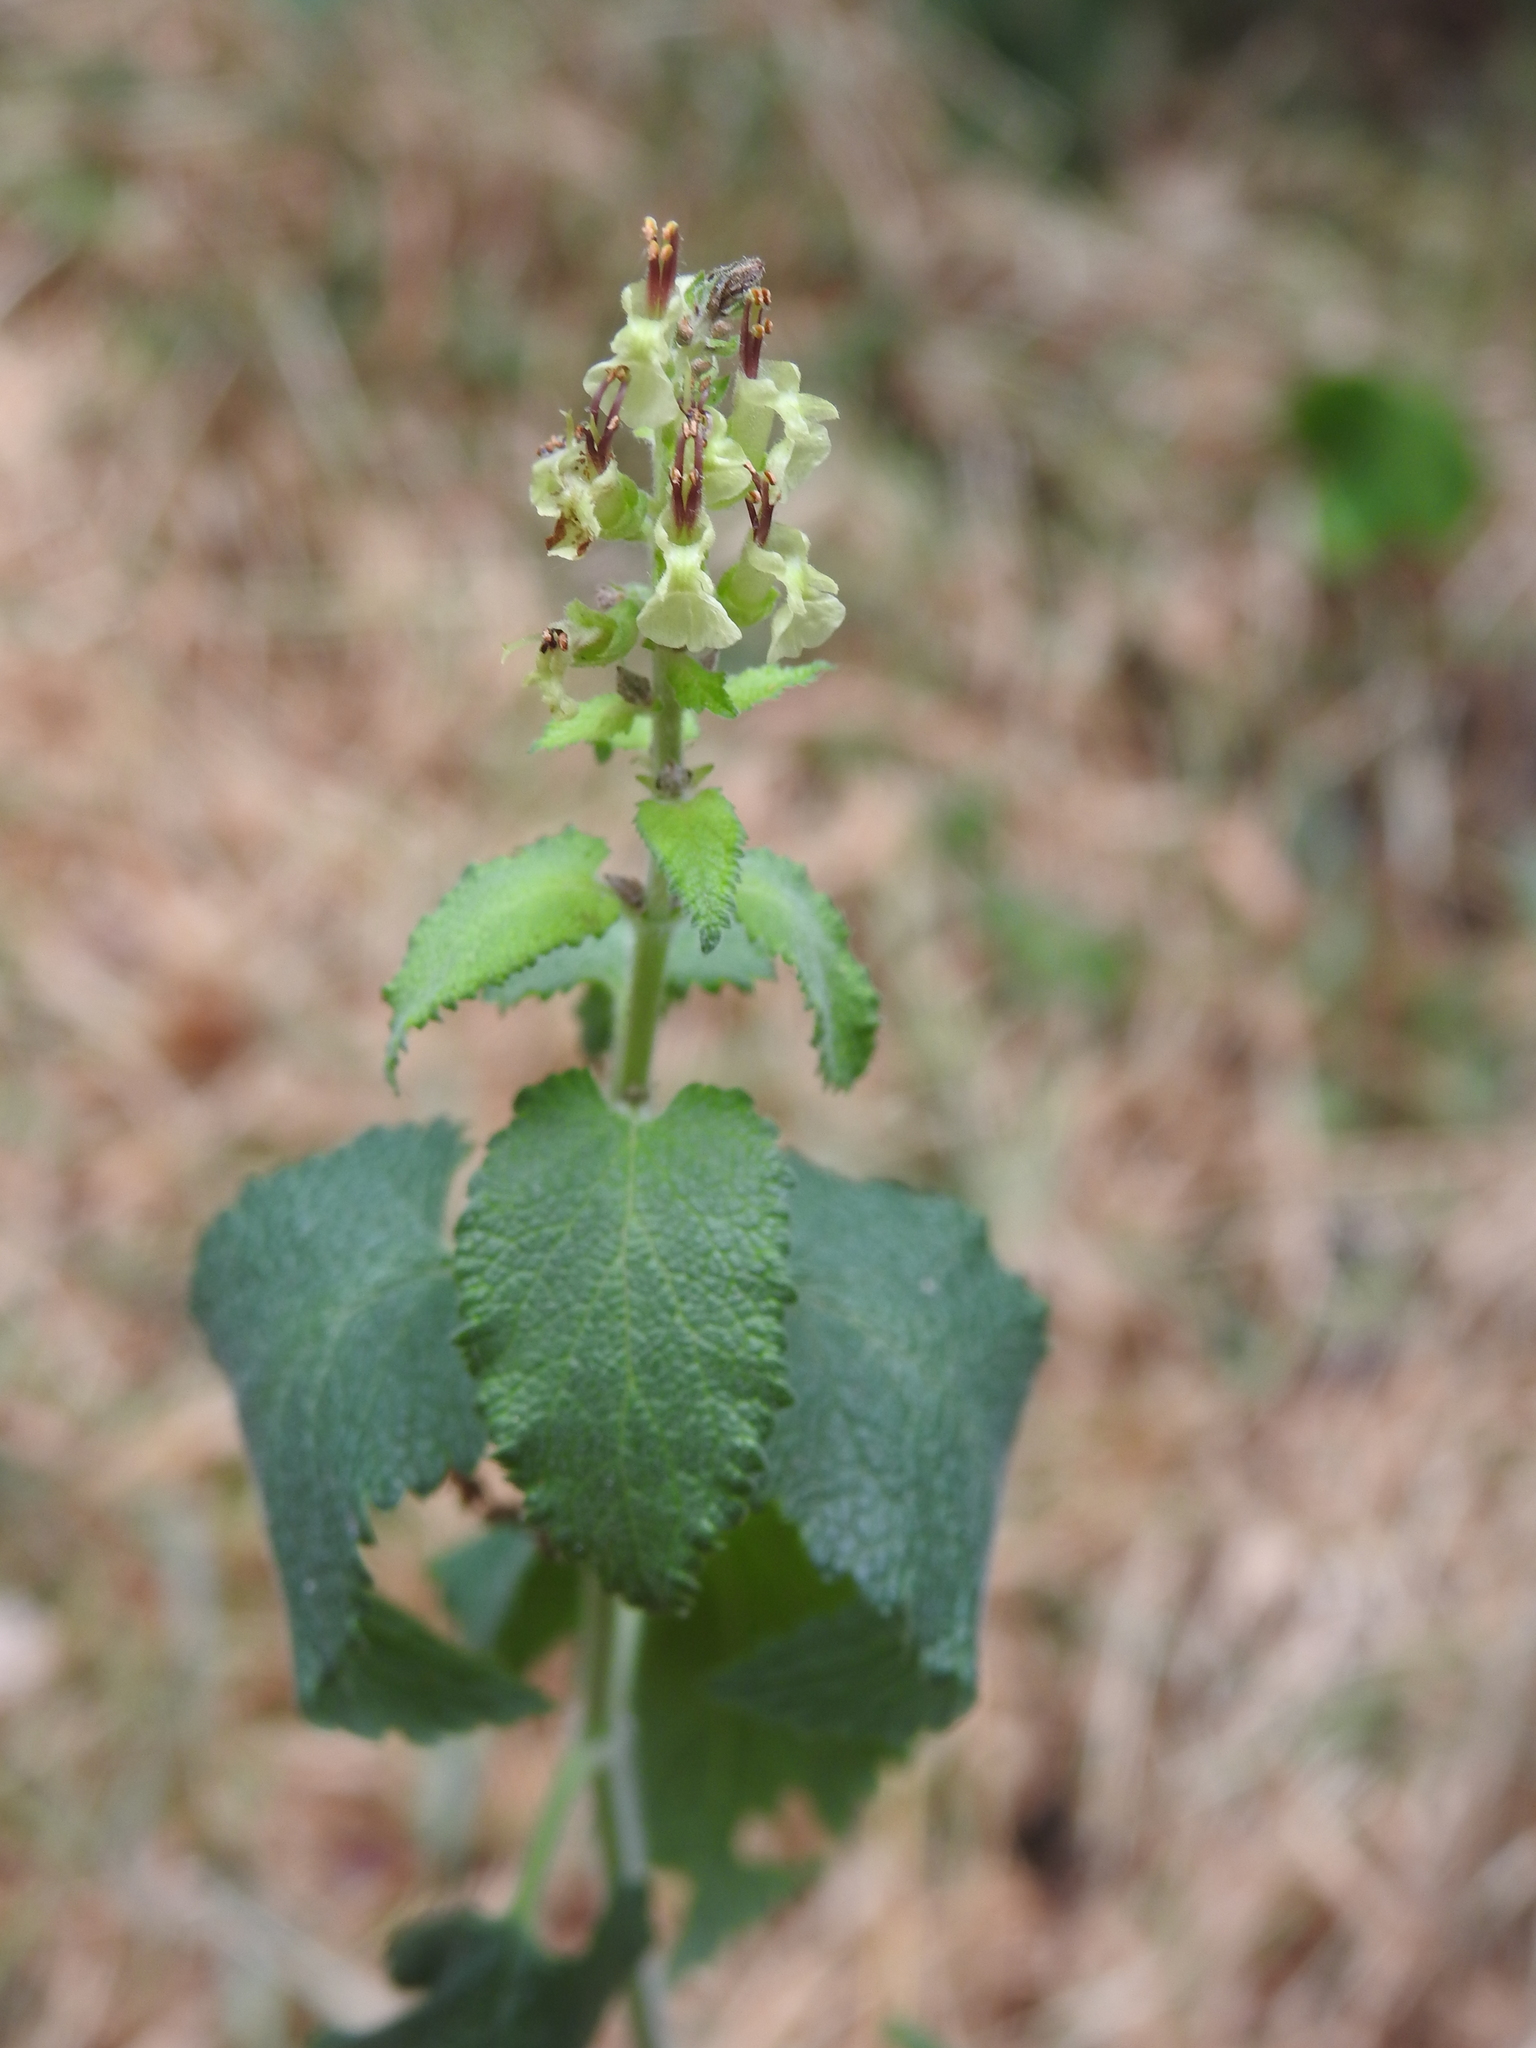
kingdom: Plantae
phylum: Tracheophyta
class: Magnoliopsida
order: Lamiales
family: Lamiaceae
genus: Teucrium
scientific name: Teucrium scorodonia
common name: Woodland germander
